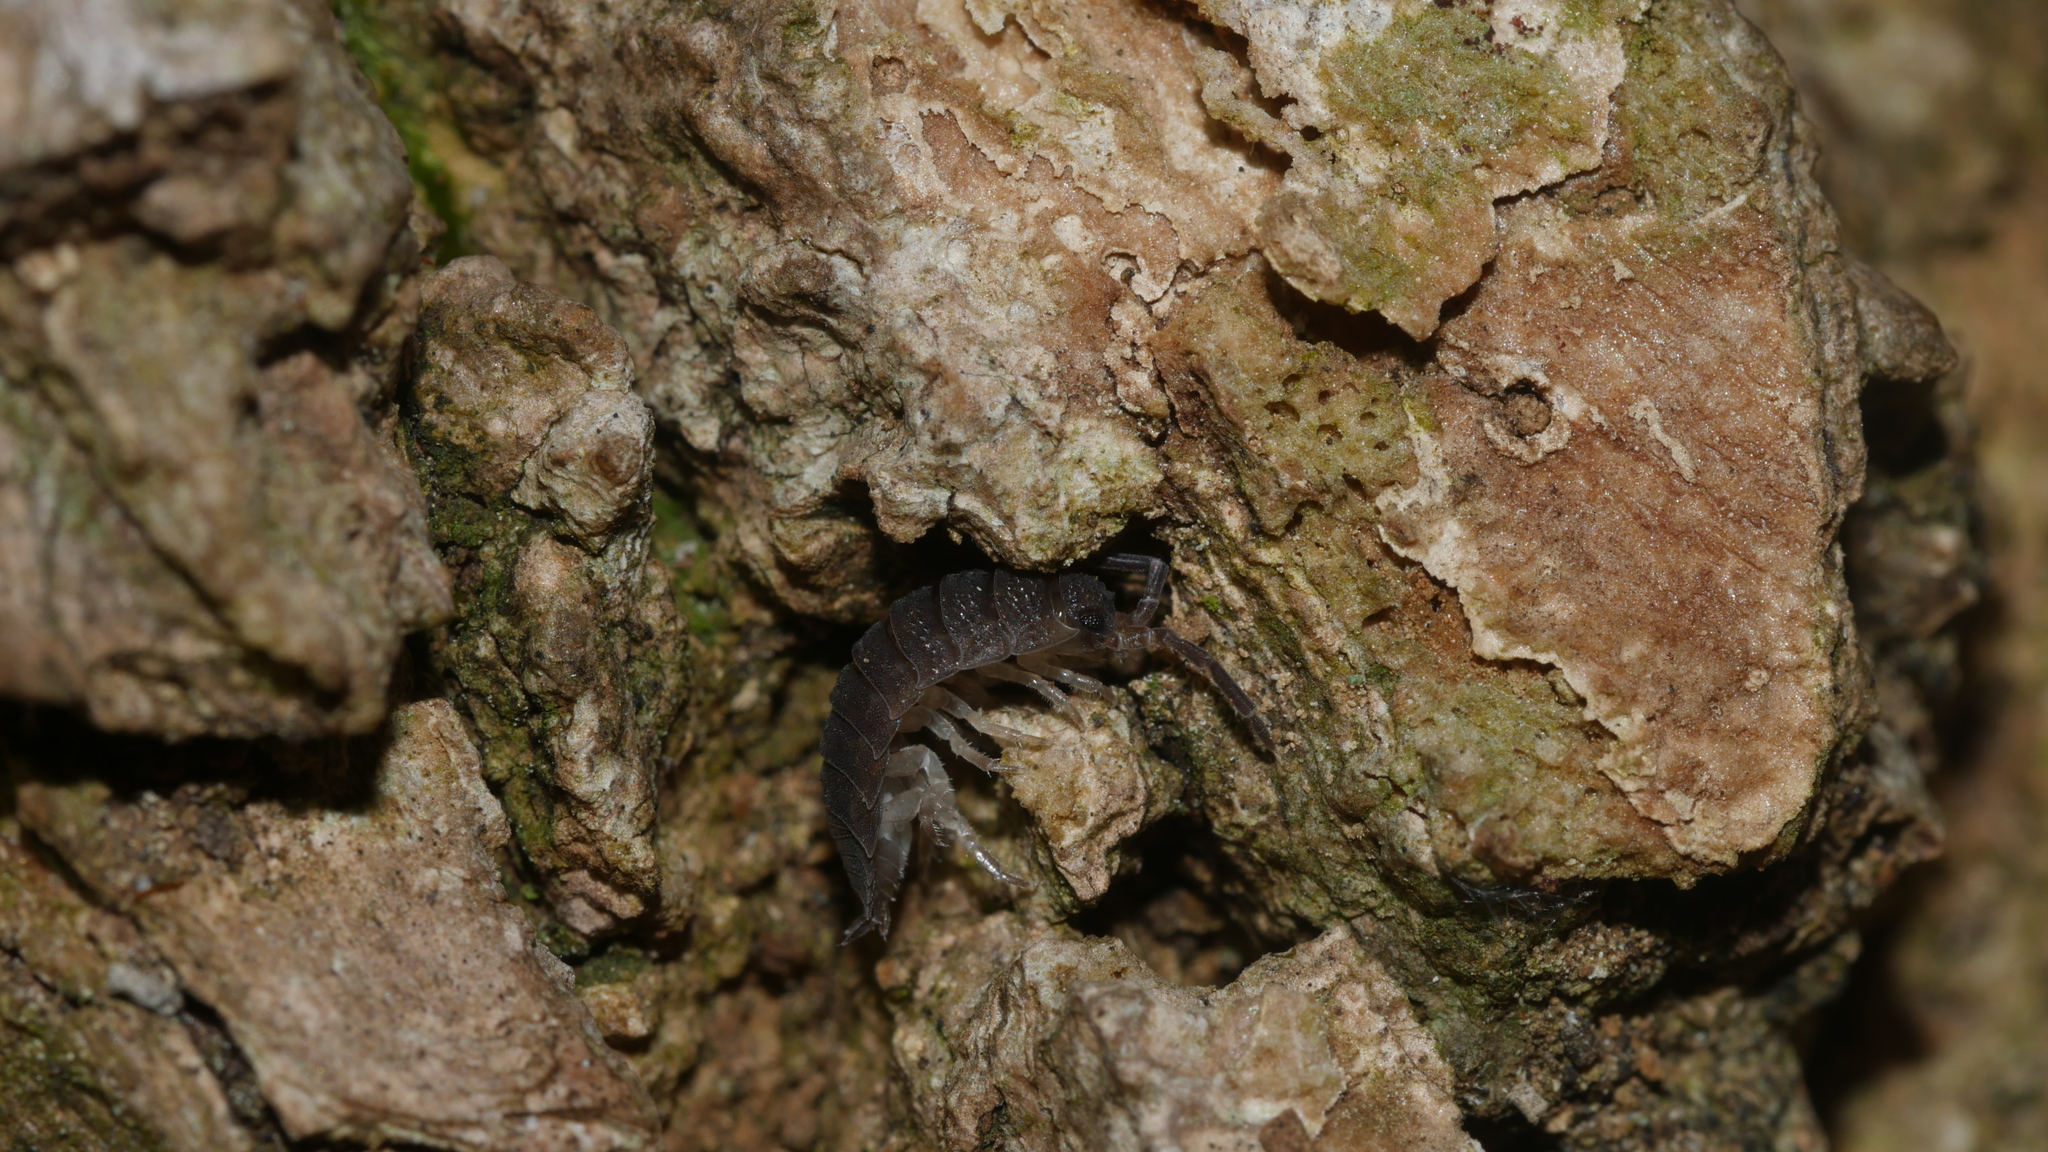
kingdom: Animalia
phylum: Arthropoda
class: Malacostraca
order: Isopoda
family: Porcellionidae
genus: Porcellio
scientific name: Porcellio scaber
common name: Common rough woodlouse
